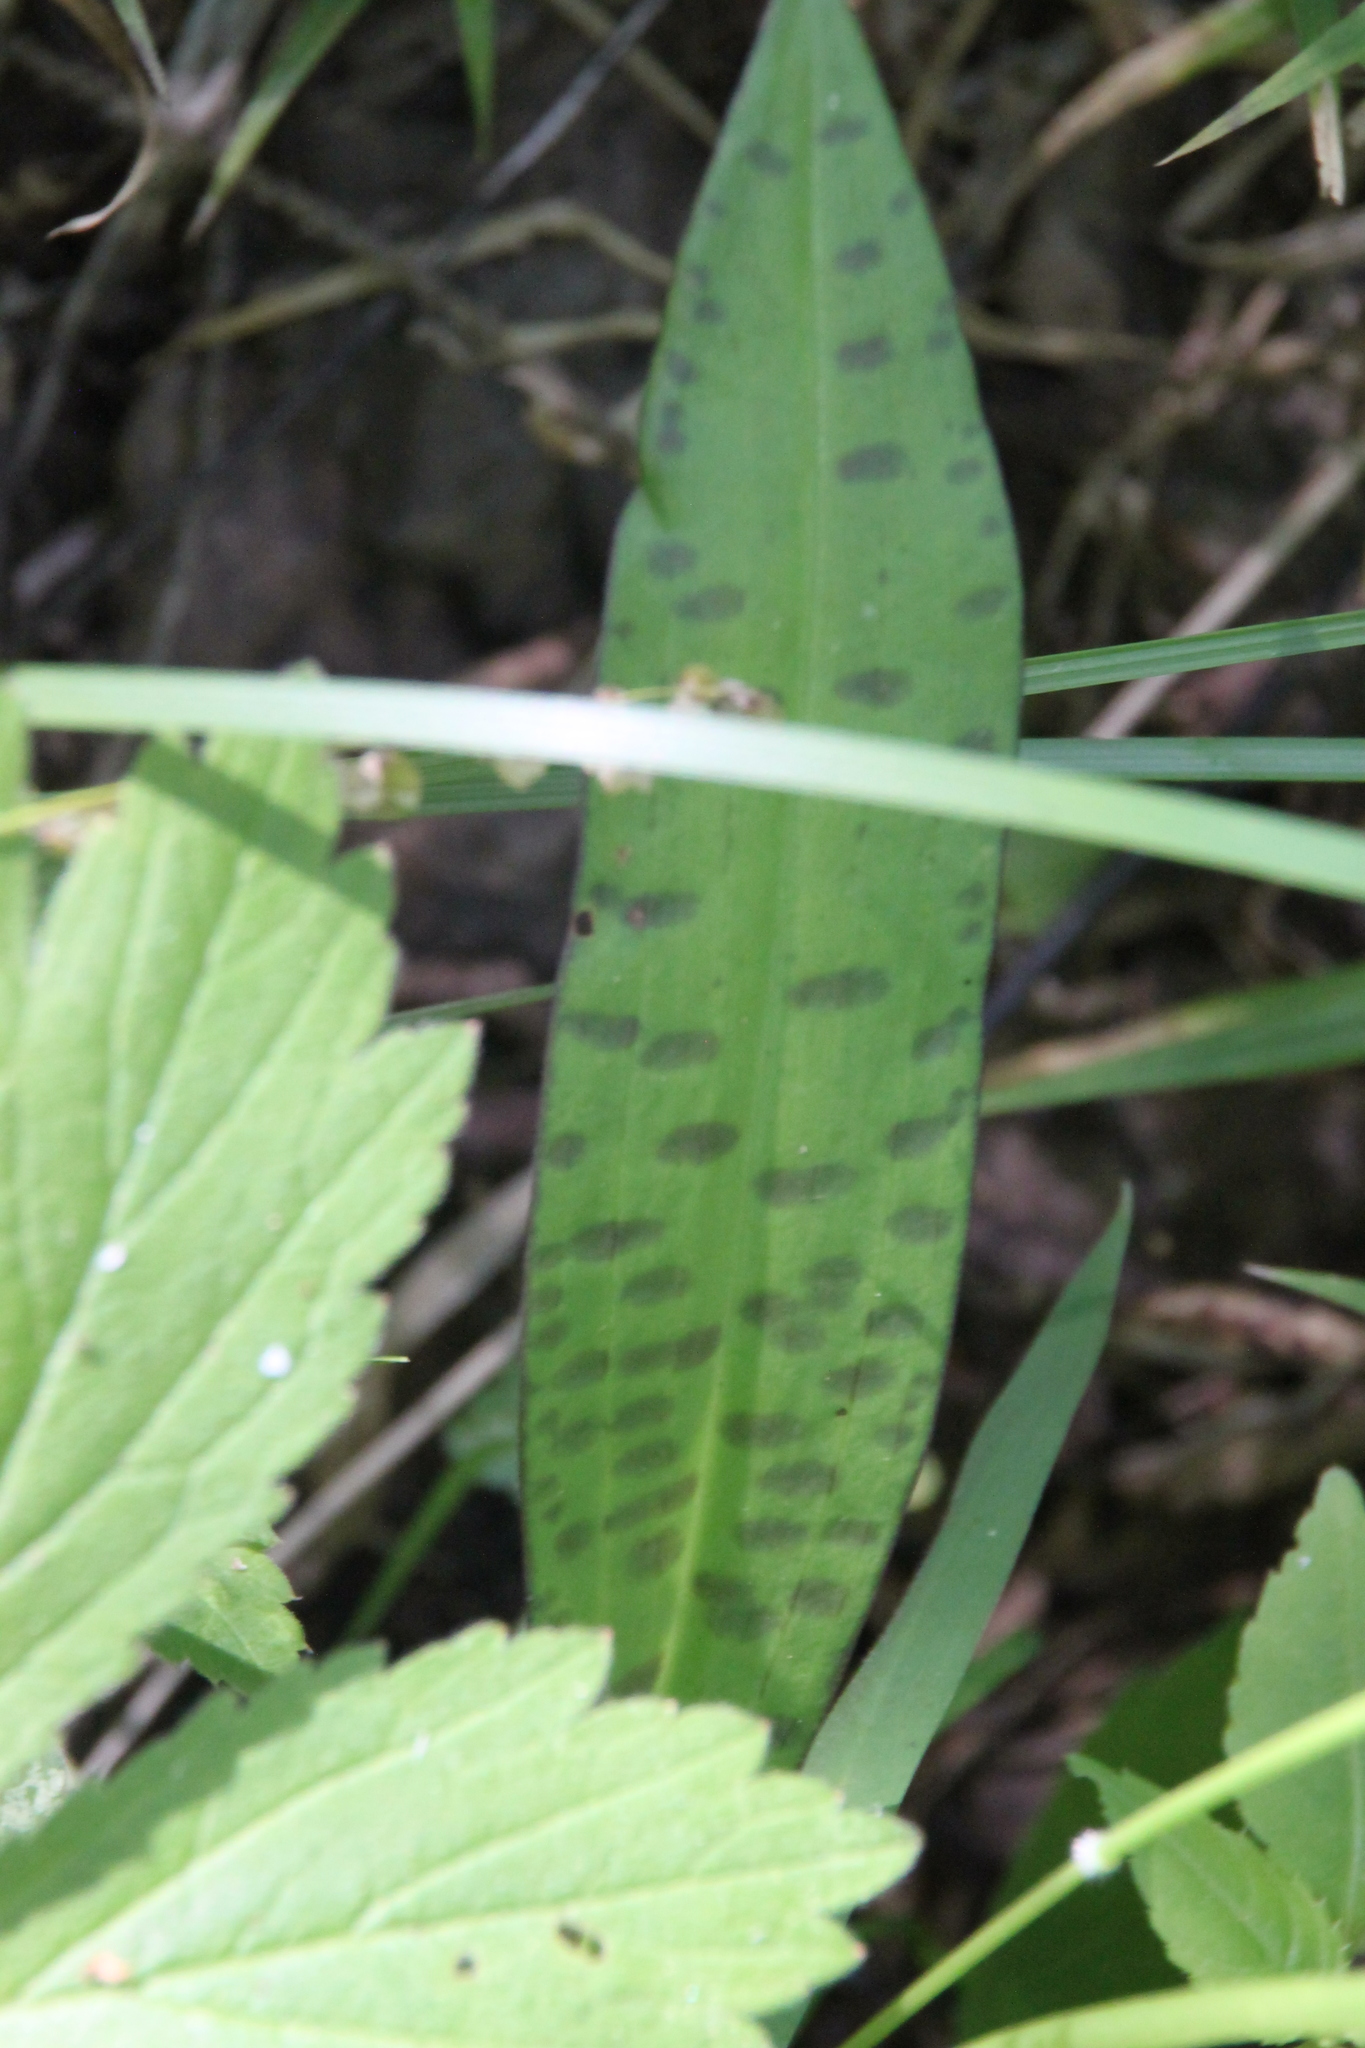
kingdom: Plantae
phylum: Tracheophyta
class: Liliopsida
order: Asparagales
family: Orchidaceae
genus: Dactylorhiza
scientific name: Dactylorhiza maculata
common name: Heath spotted-orchid
